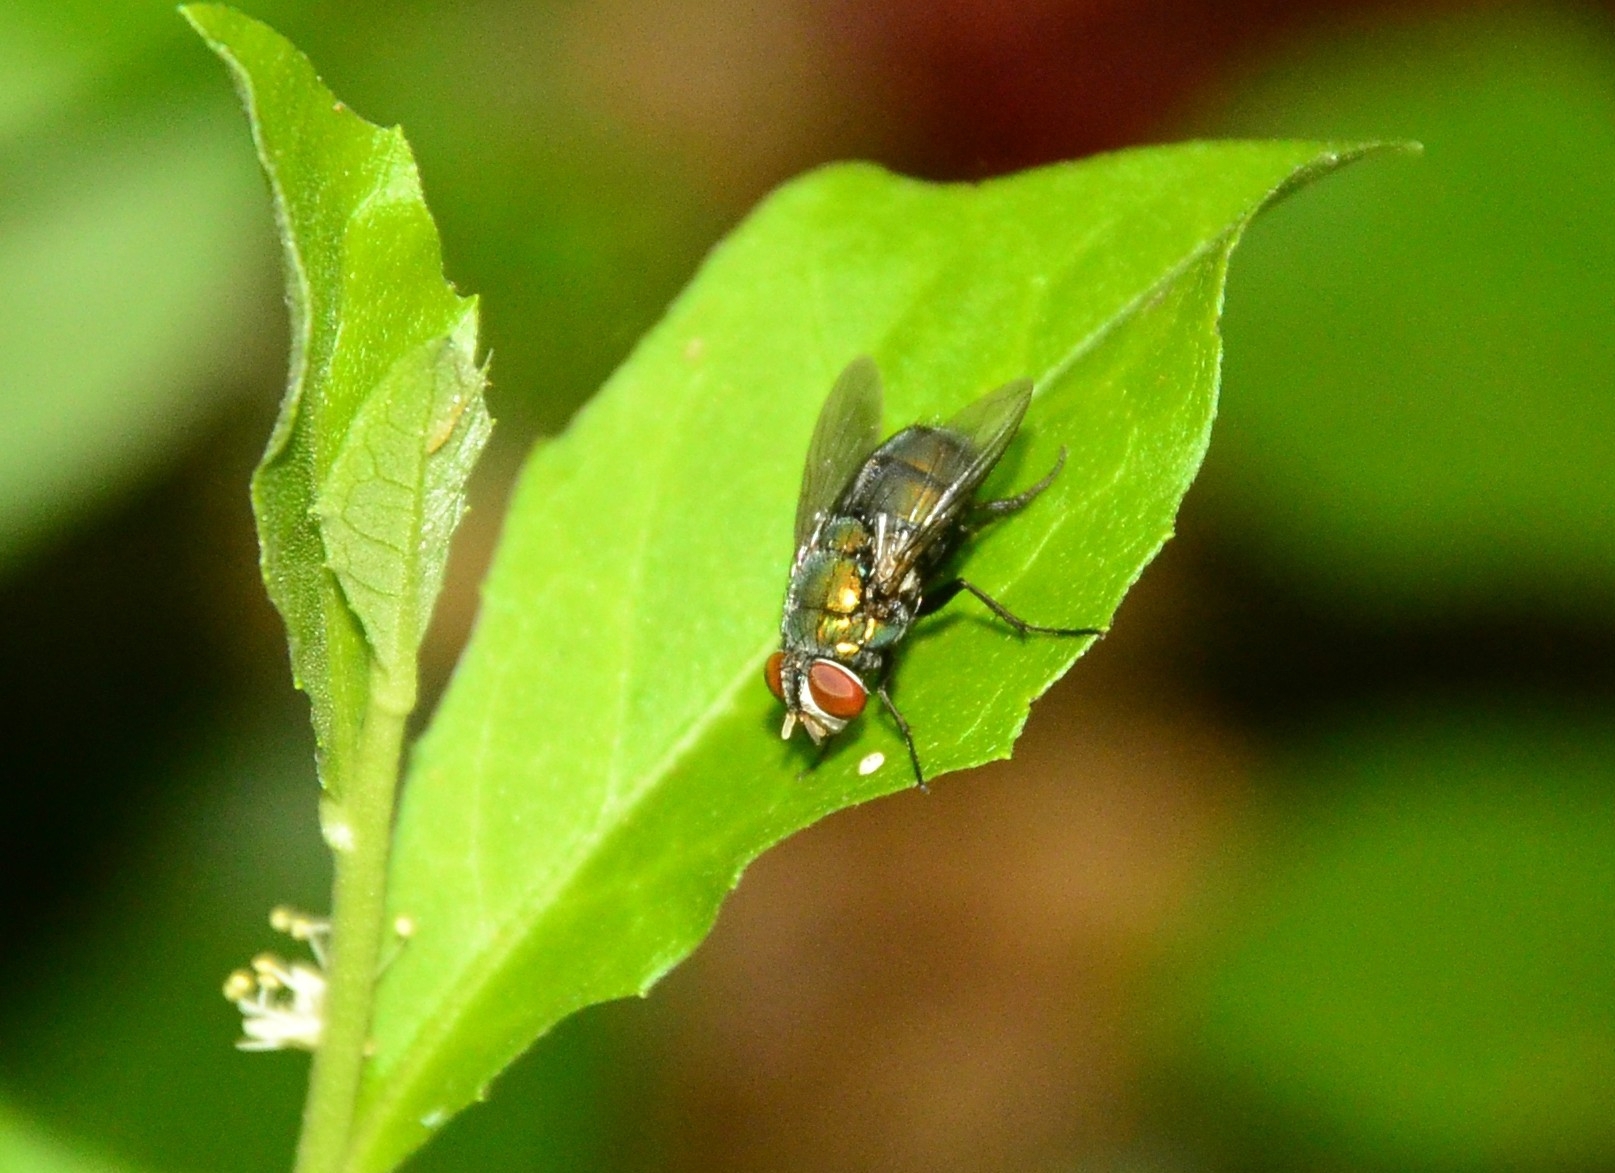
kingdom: Animalia
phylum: Arthropoda
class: Insecta
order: Diptera
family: Calliphoridae
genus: Lucilia
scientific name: Lucilia sericata
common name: Blow fly
